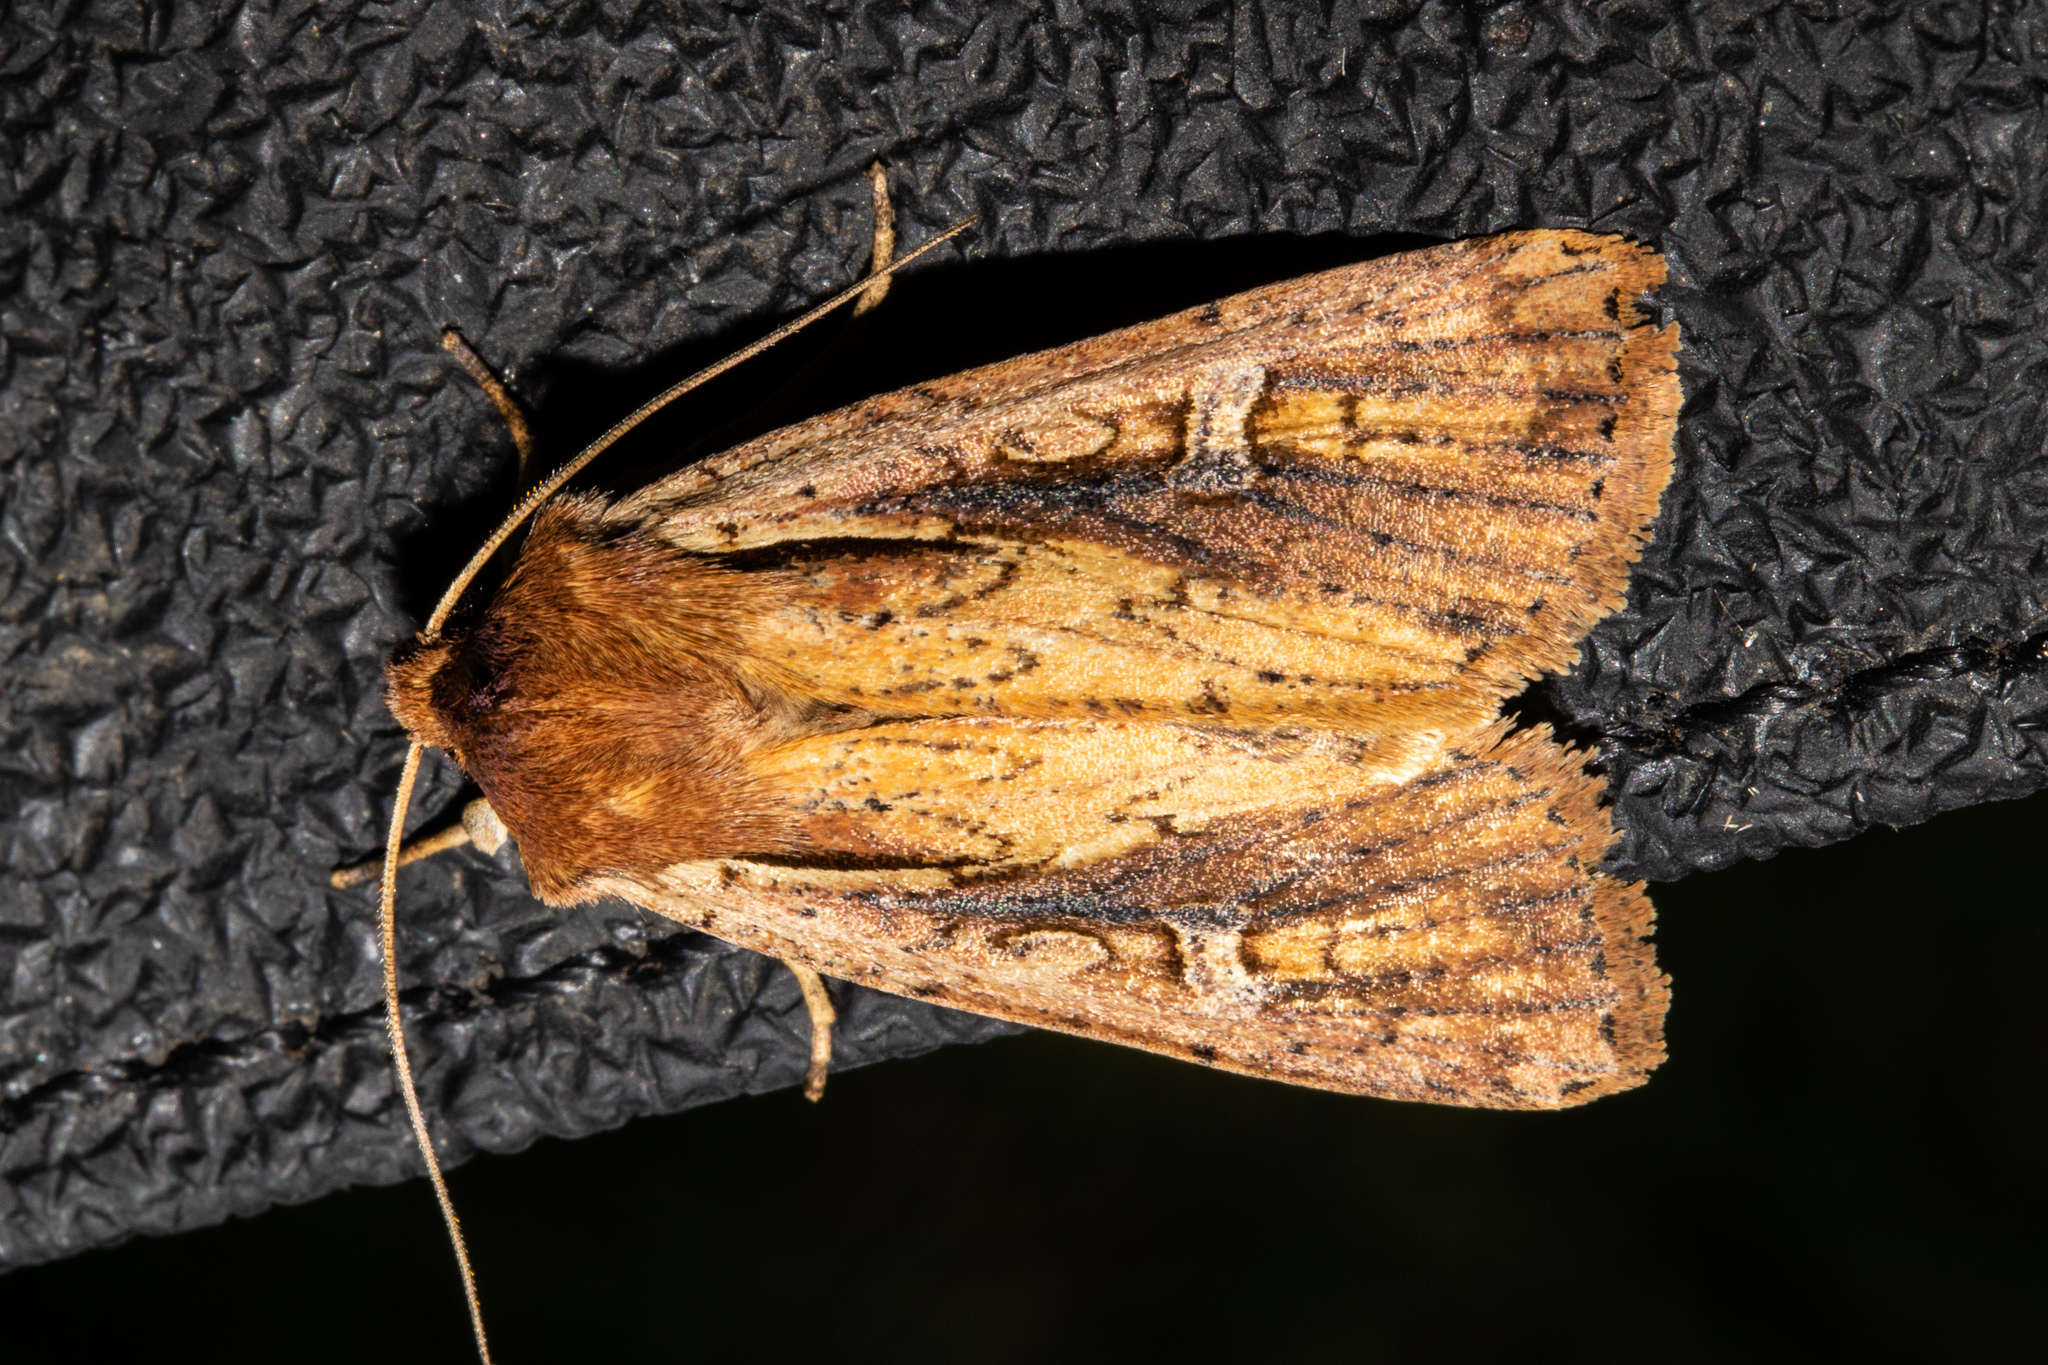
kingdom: Animalia
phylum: Arthropoda
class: Insecta
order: Lepidoptera
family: Noctuidae
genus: Ichneutica
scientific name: Ichneutica atristriga
